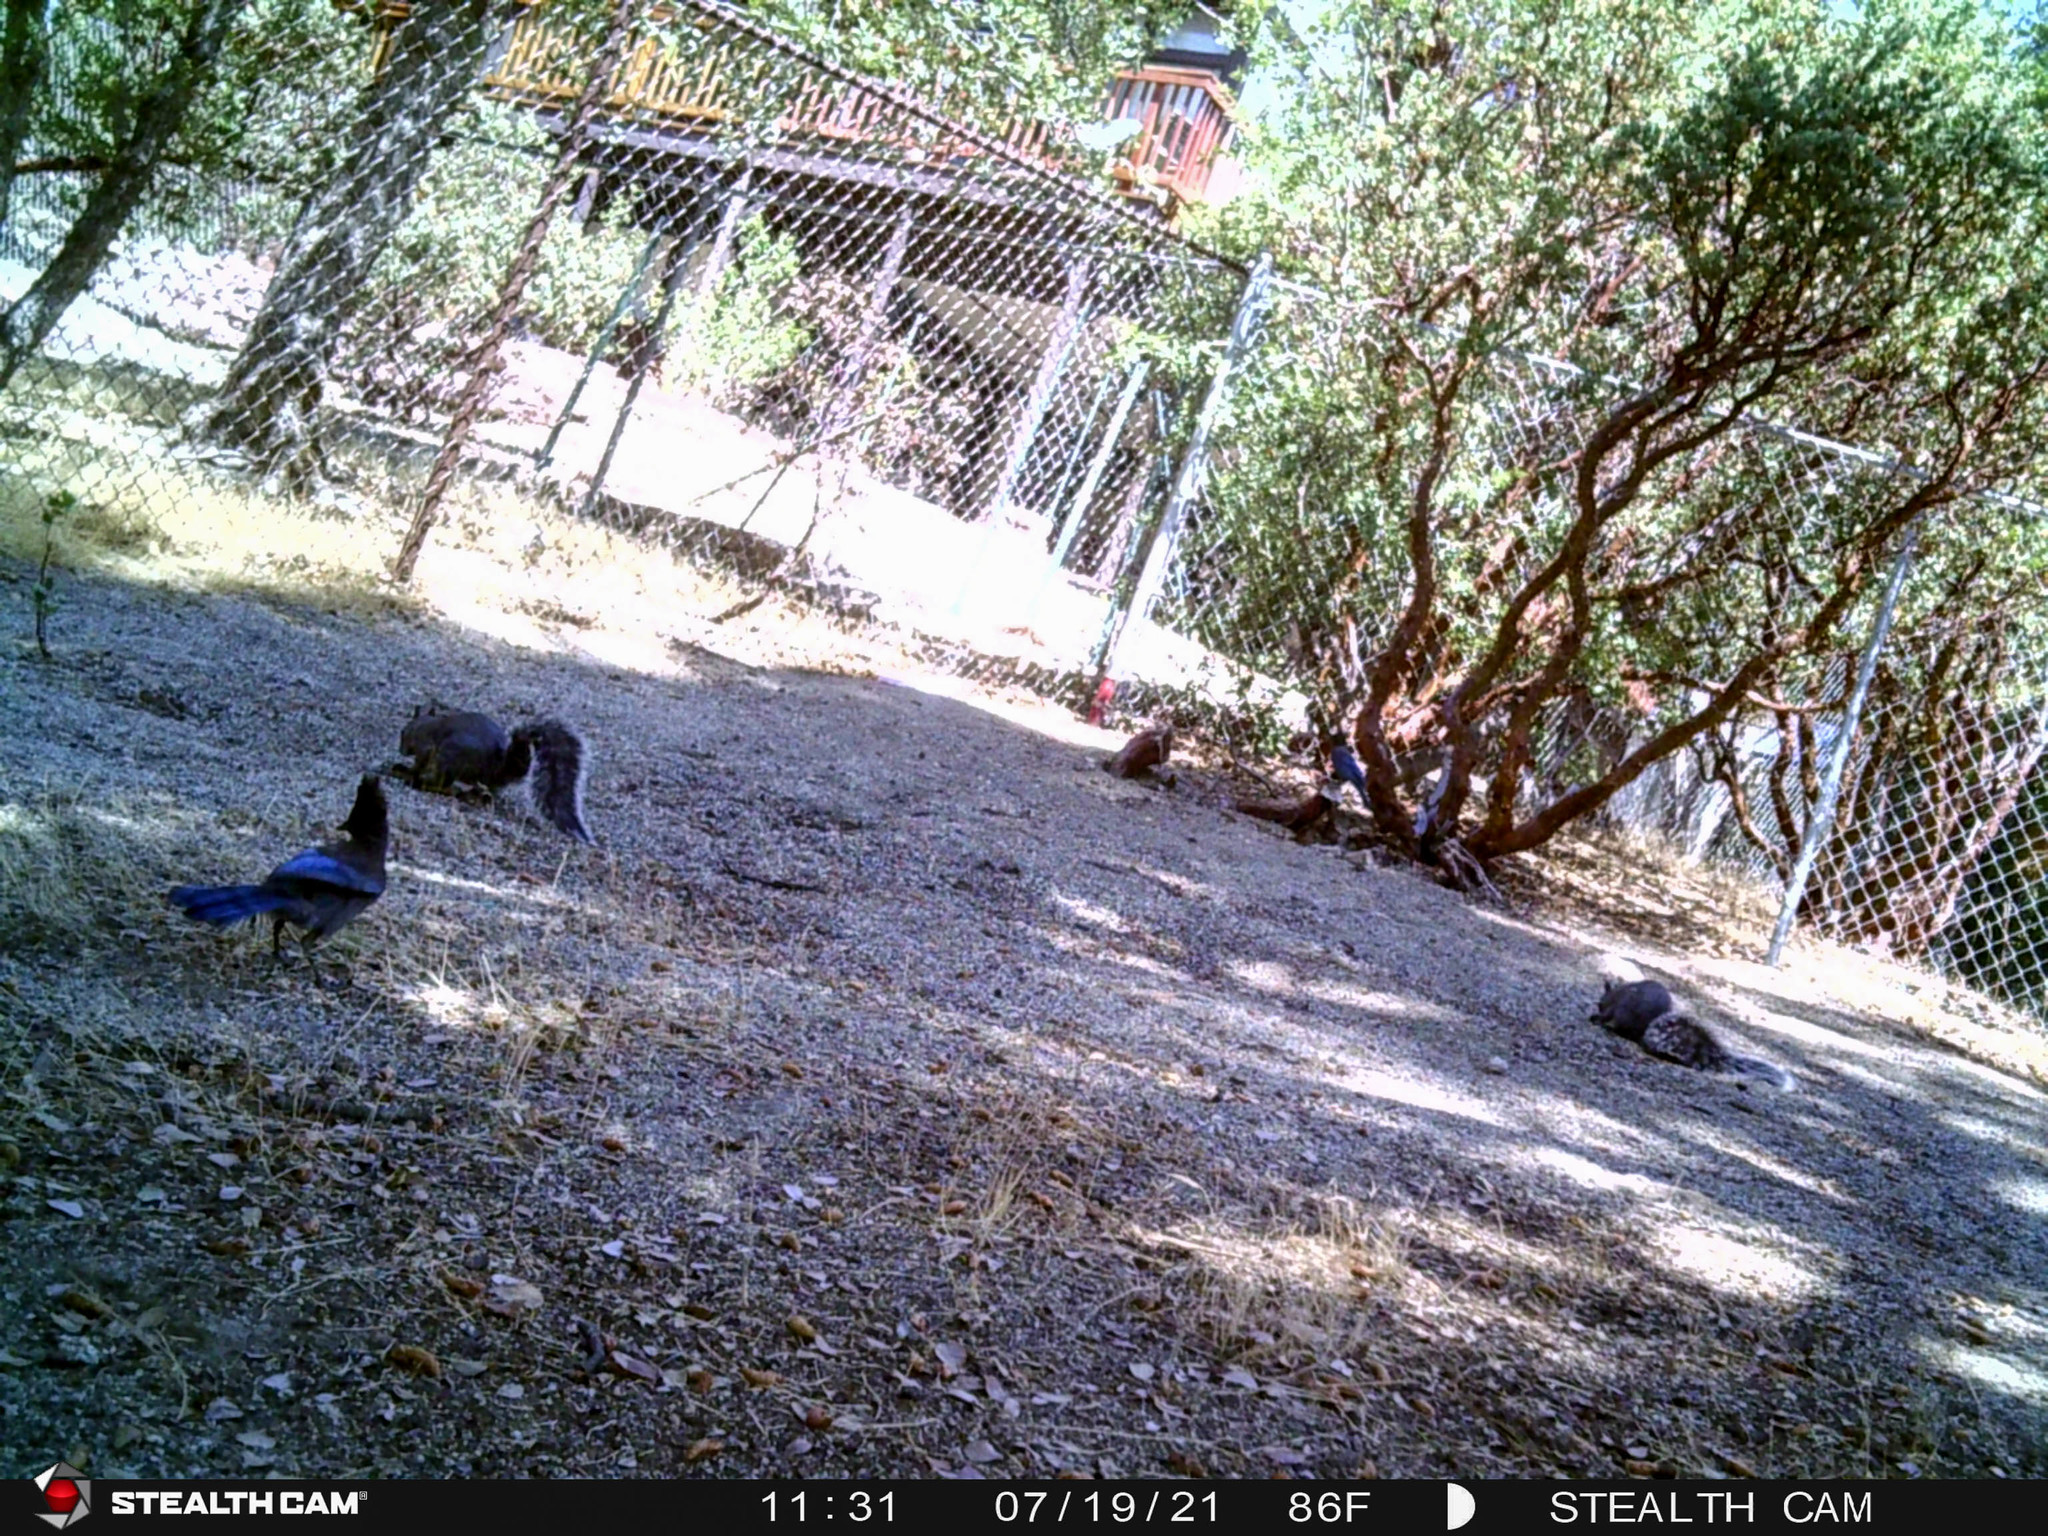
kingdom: Animalia
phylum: Chordata
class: Mammalia
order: Rodentia
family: Sciuridae
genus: Sciurus
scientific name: Sciurus griseus
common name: Western gray squirrel
